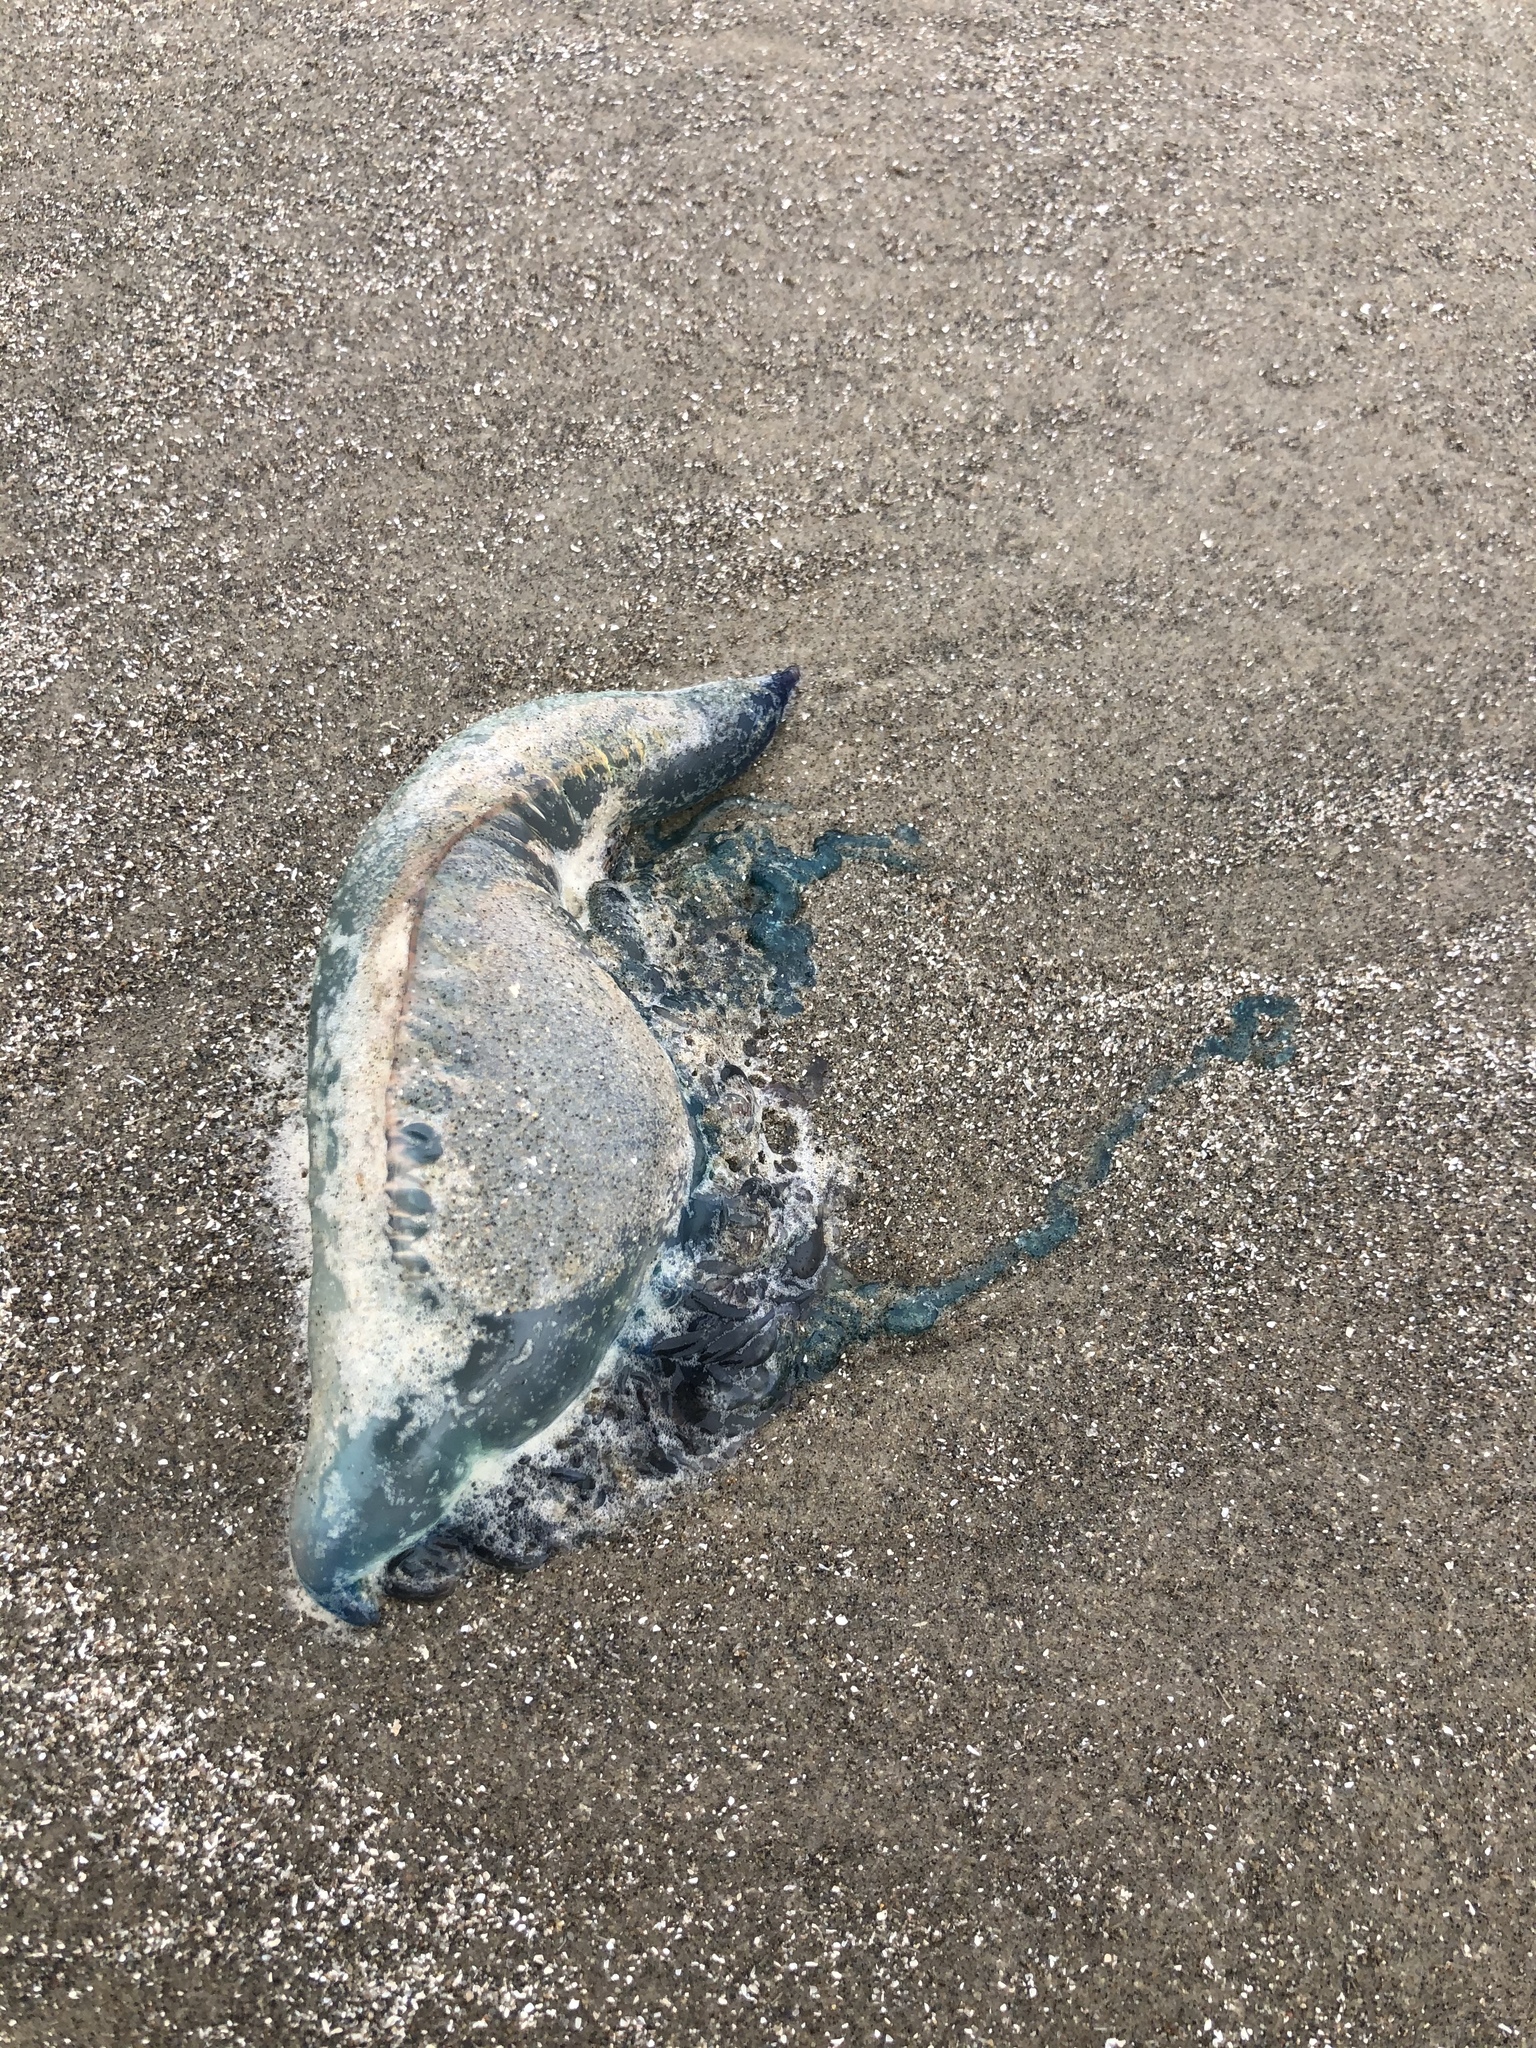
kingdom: Animalia
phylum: Cnidaria
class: Hydrozoa
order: Siphonophorae
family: Physaliidae
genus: Physalia
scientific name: Physalia physalis
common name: Portuguese man-of-war
